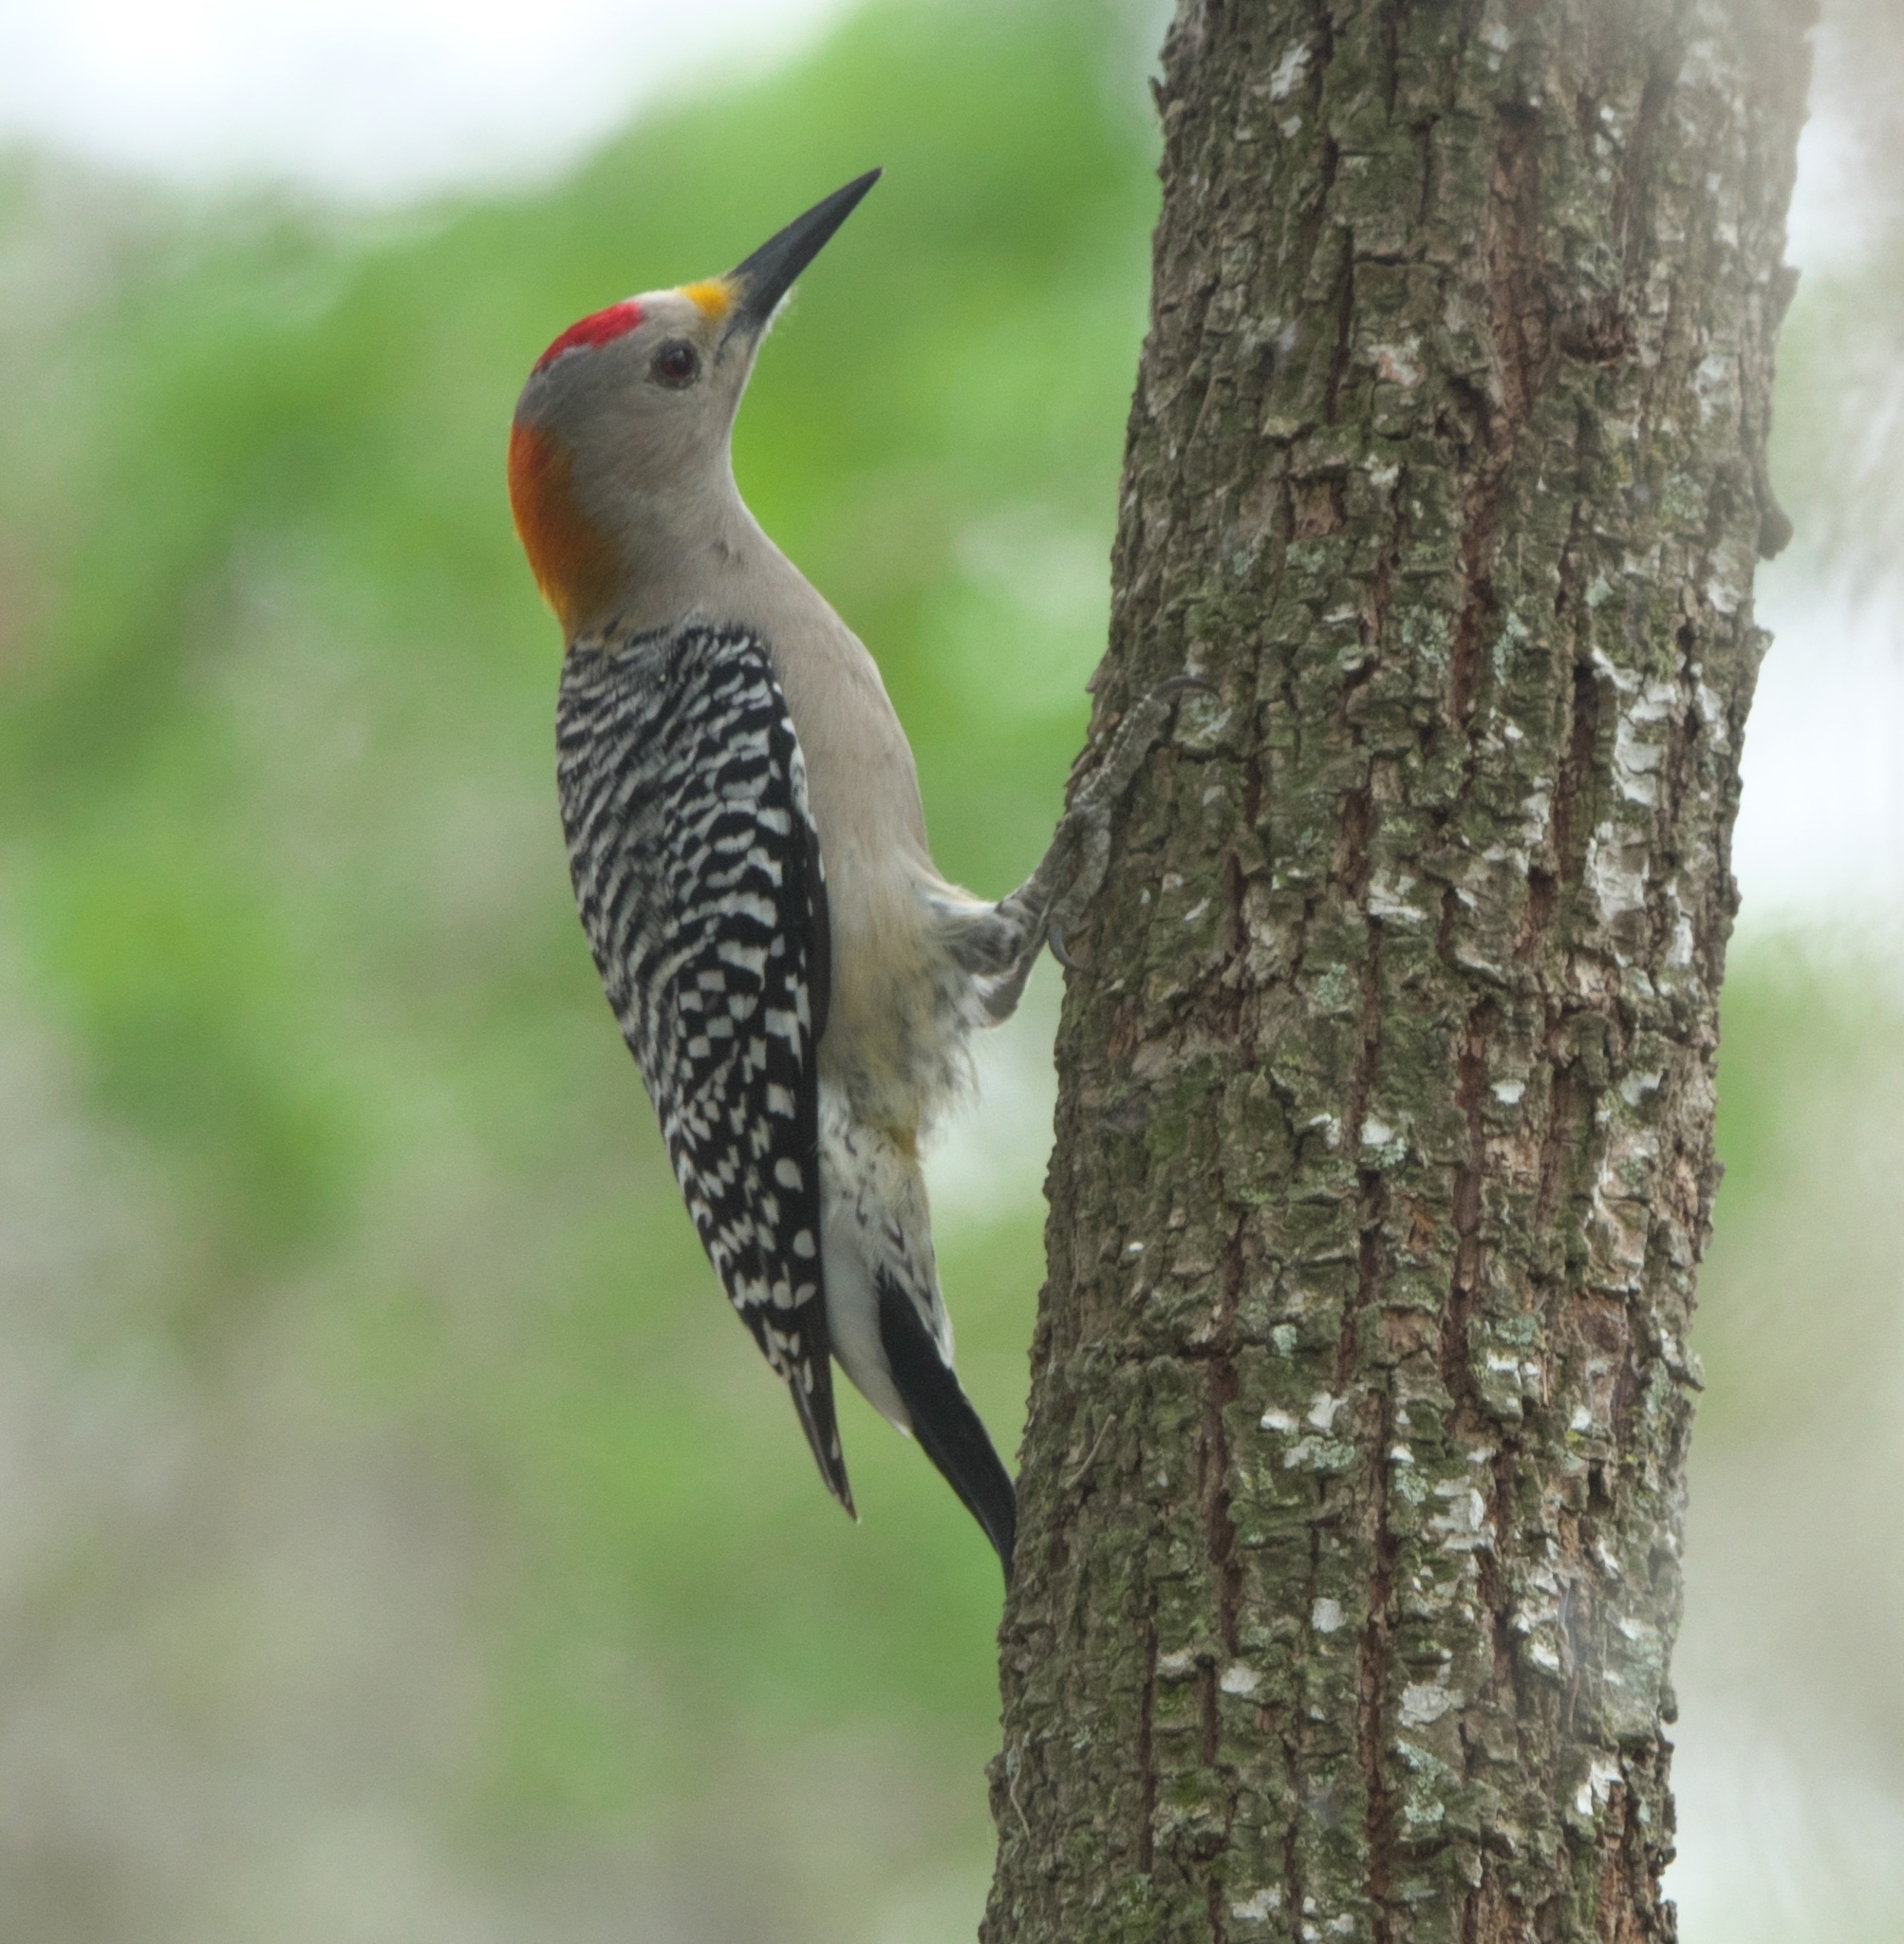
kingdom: Animalia
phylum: Chordata
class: Aves
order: Piciformes
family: Picidae
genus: Melanerpes
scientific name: Melanerpes aurifrons
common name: Golden-fronted woodpecker
